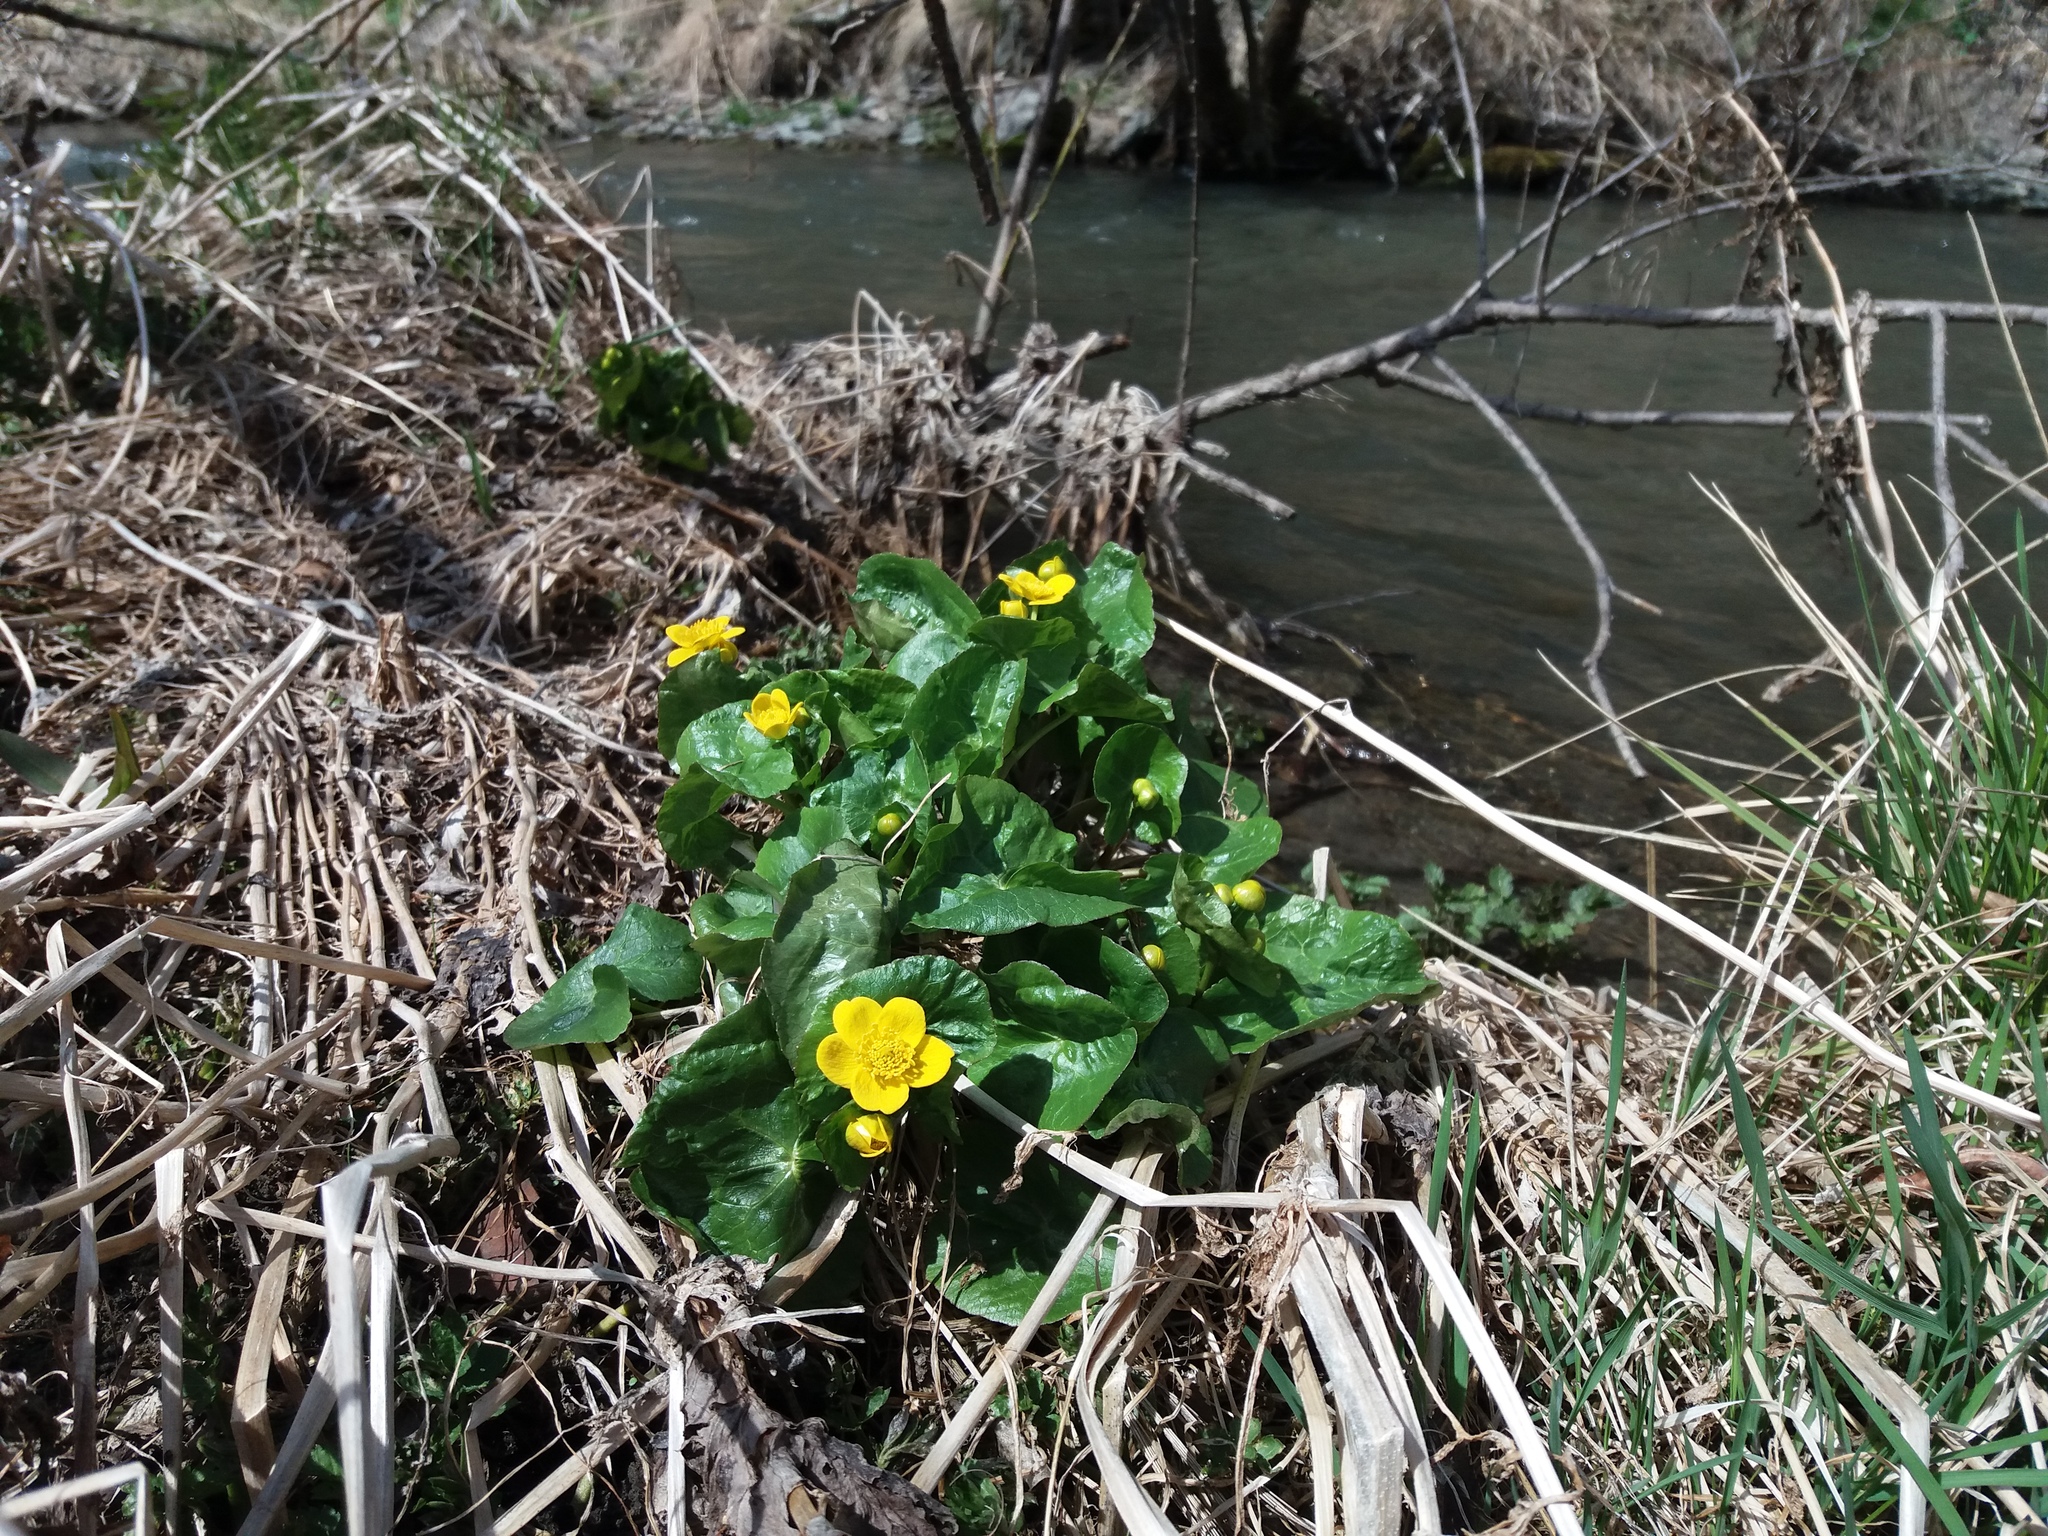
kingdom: Plantae
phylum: Tracheophyta
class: Magnoliopsida
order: Ranunculales
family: Ranunculaceae
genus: Caltha
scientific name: Caltha palustris
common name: Marsh marigold
